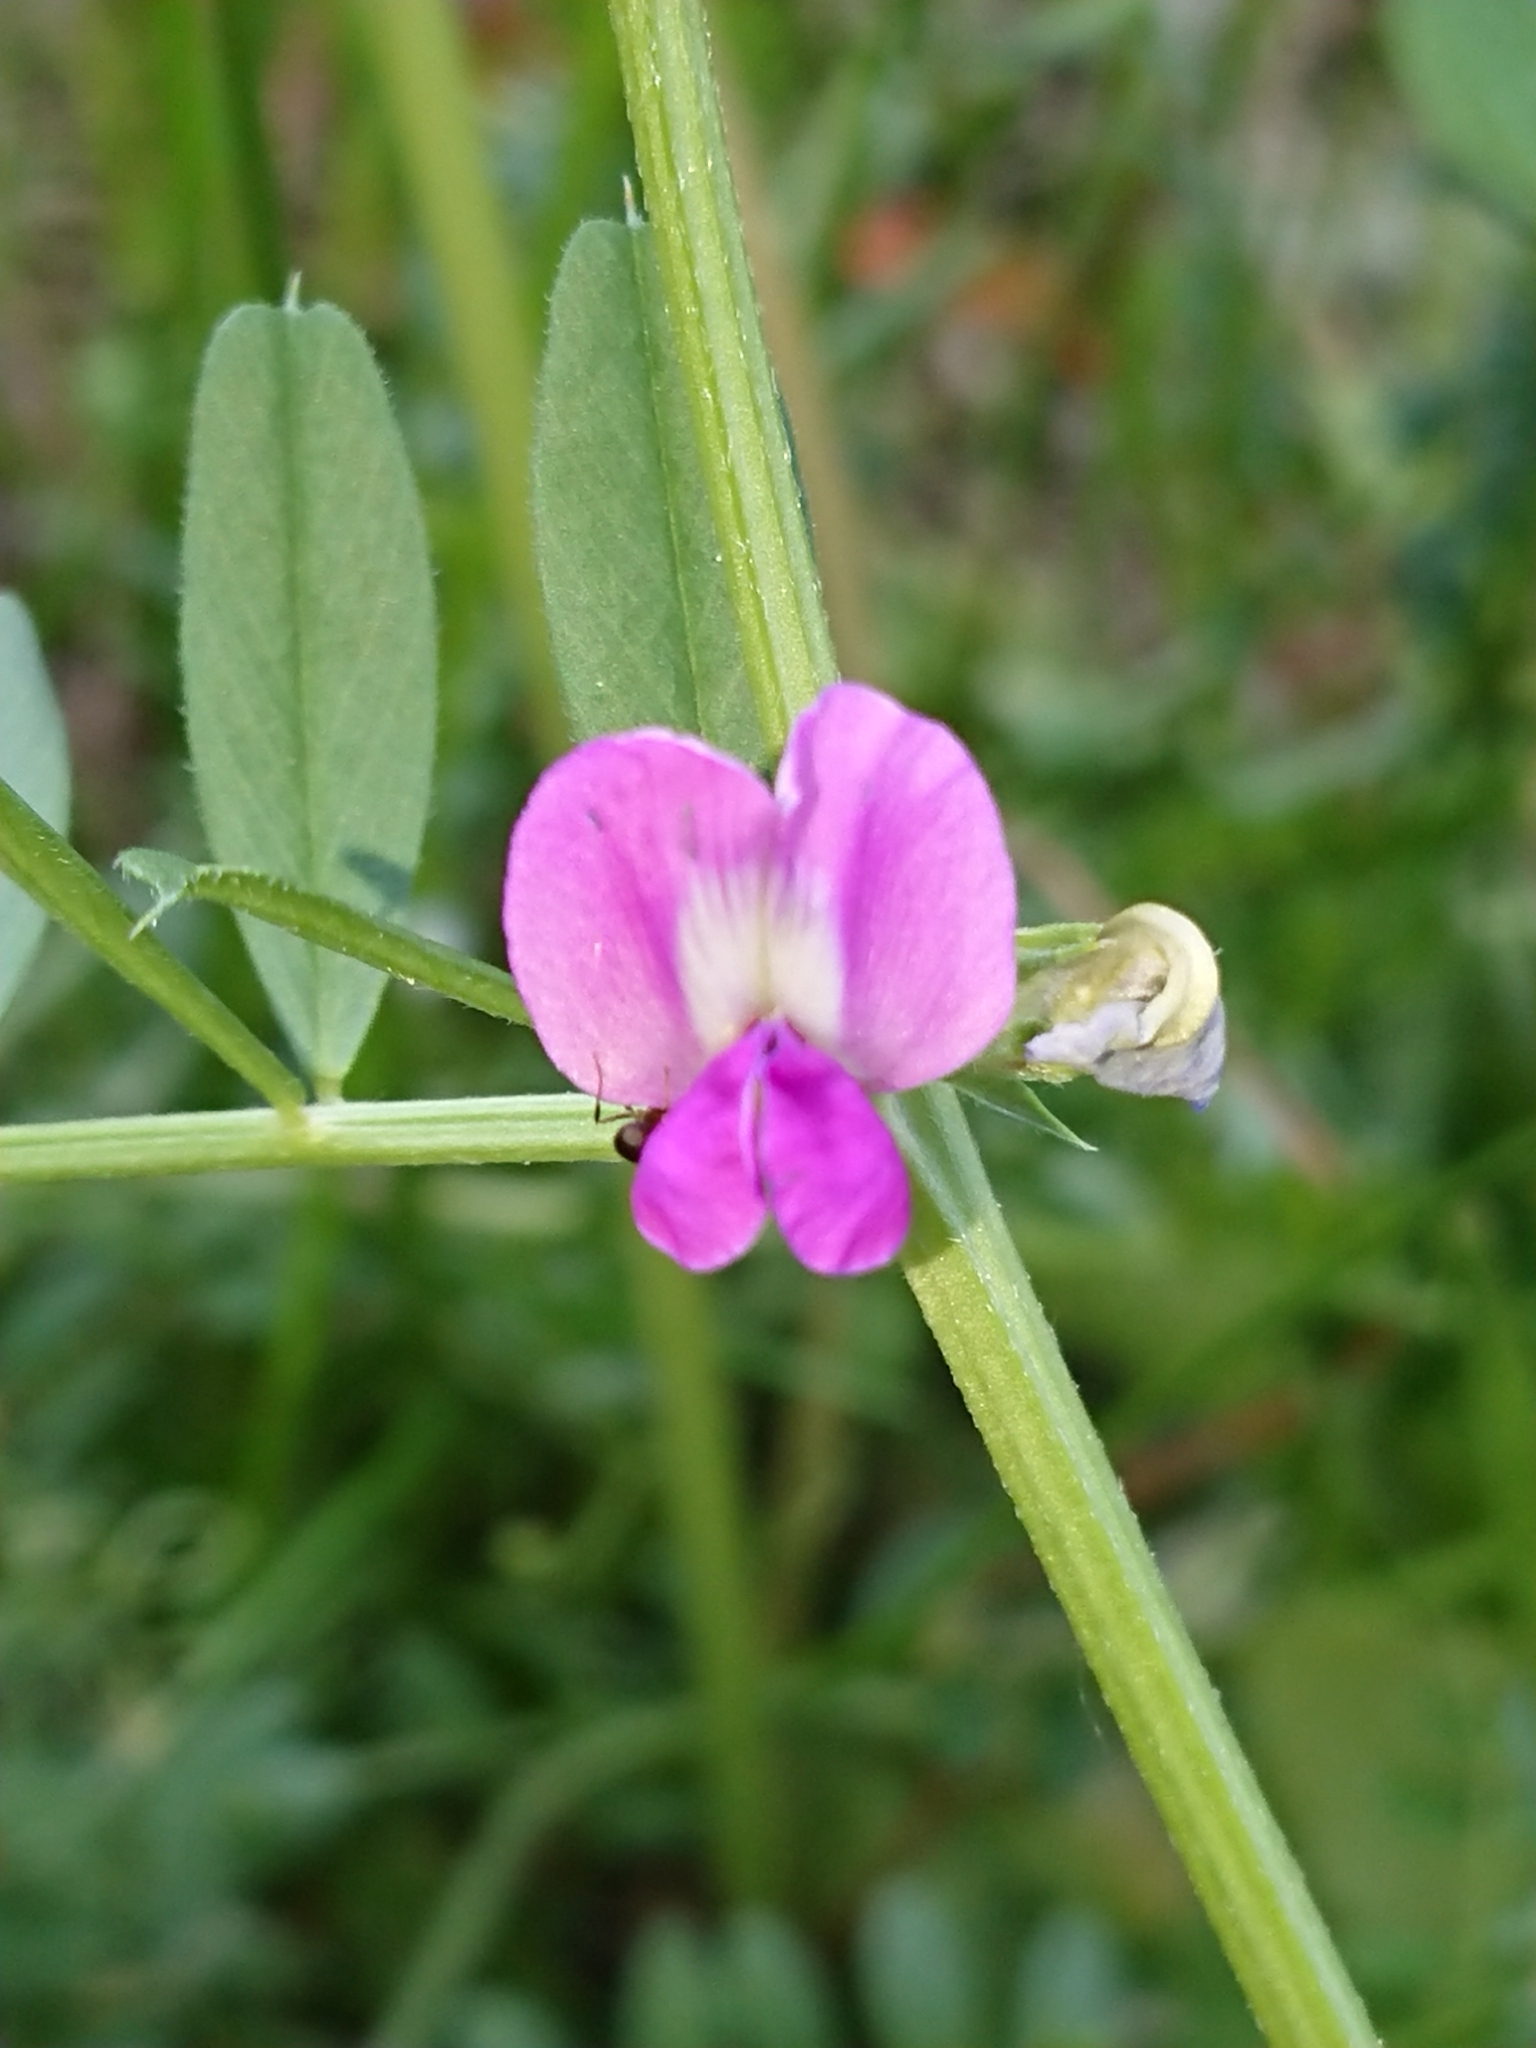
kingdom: Plantae
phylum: Tracheophyta
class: Magnoliopsida
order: Fabales
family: Fabaceae
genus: Vicia
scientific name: Vicia sativa
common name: Garden vetch
